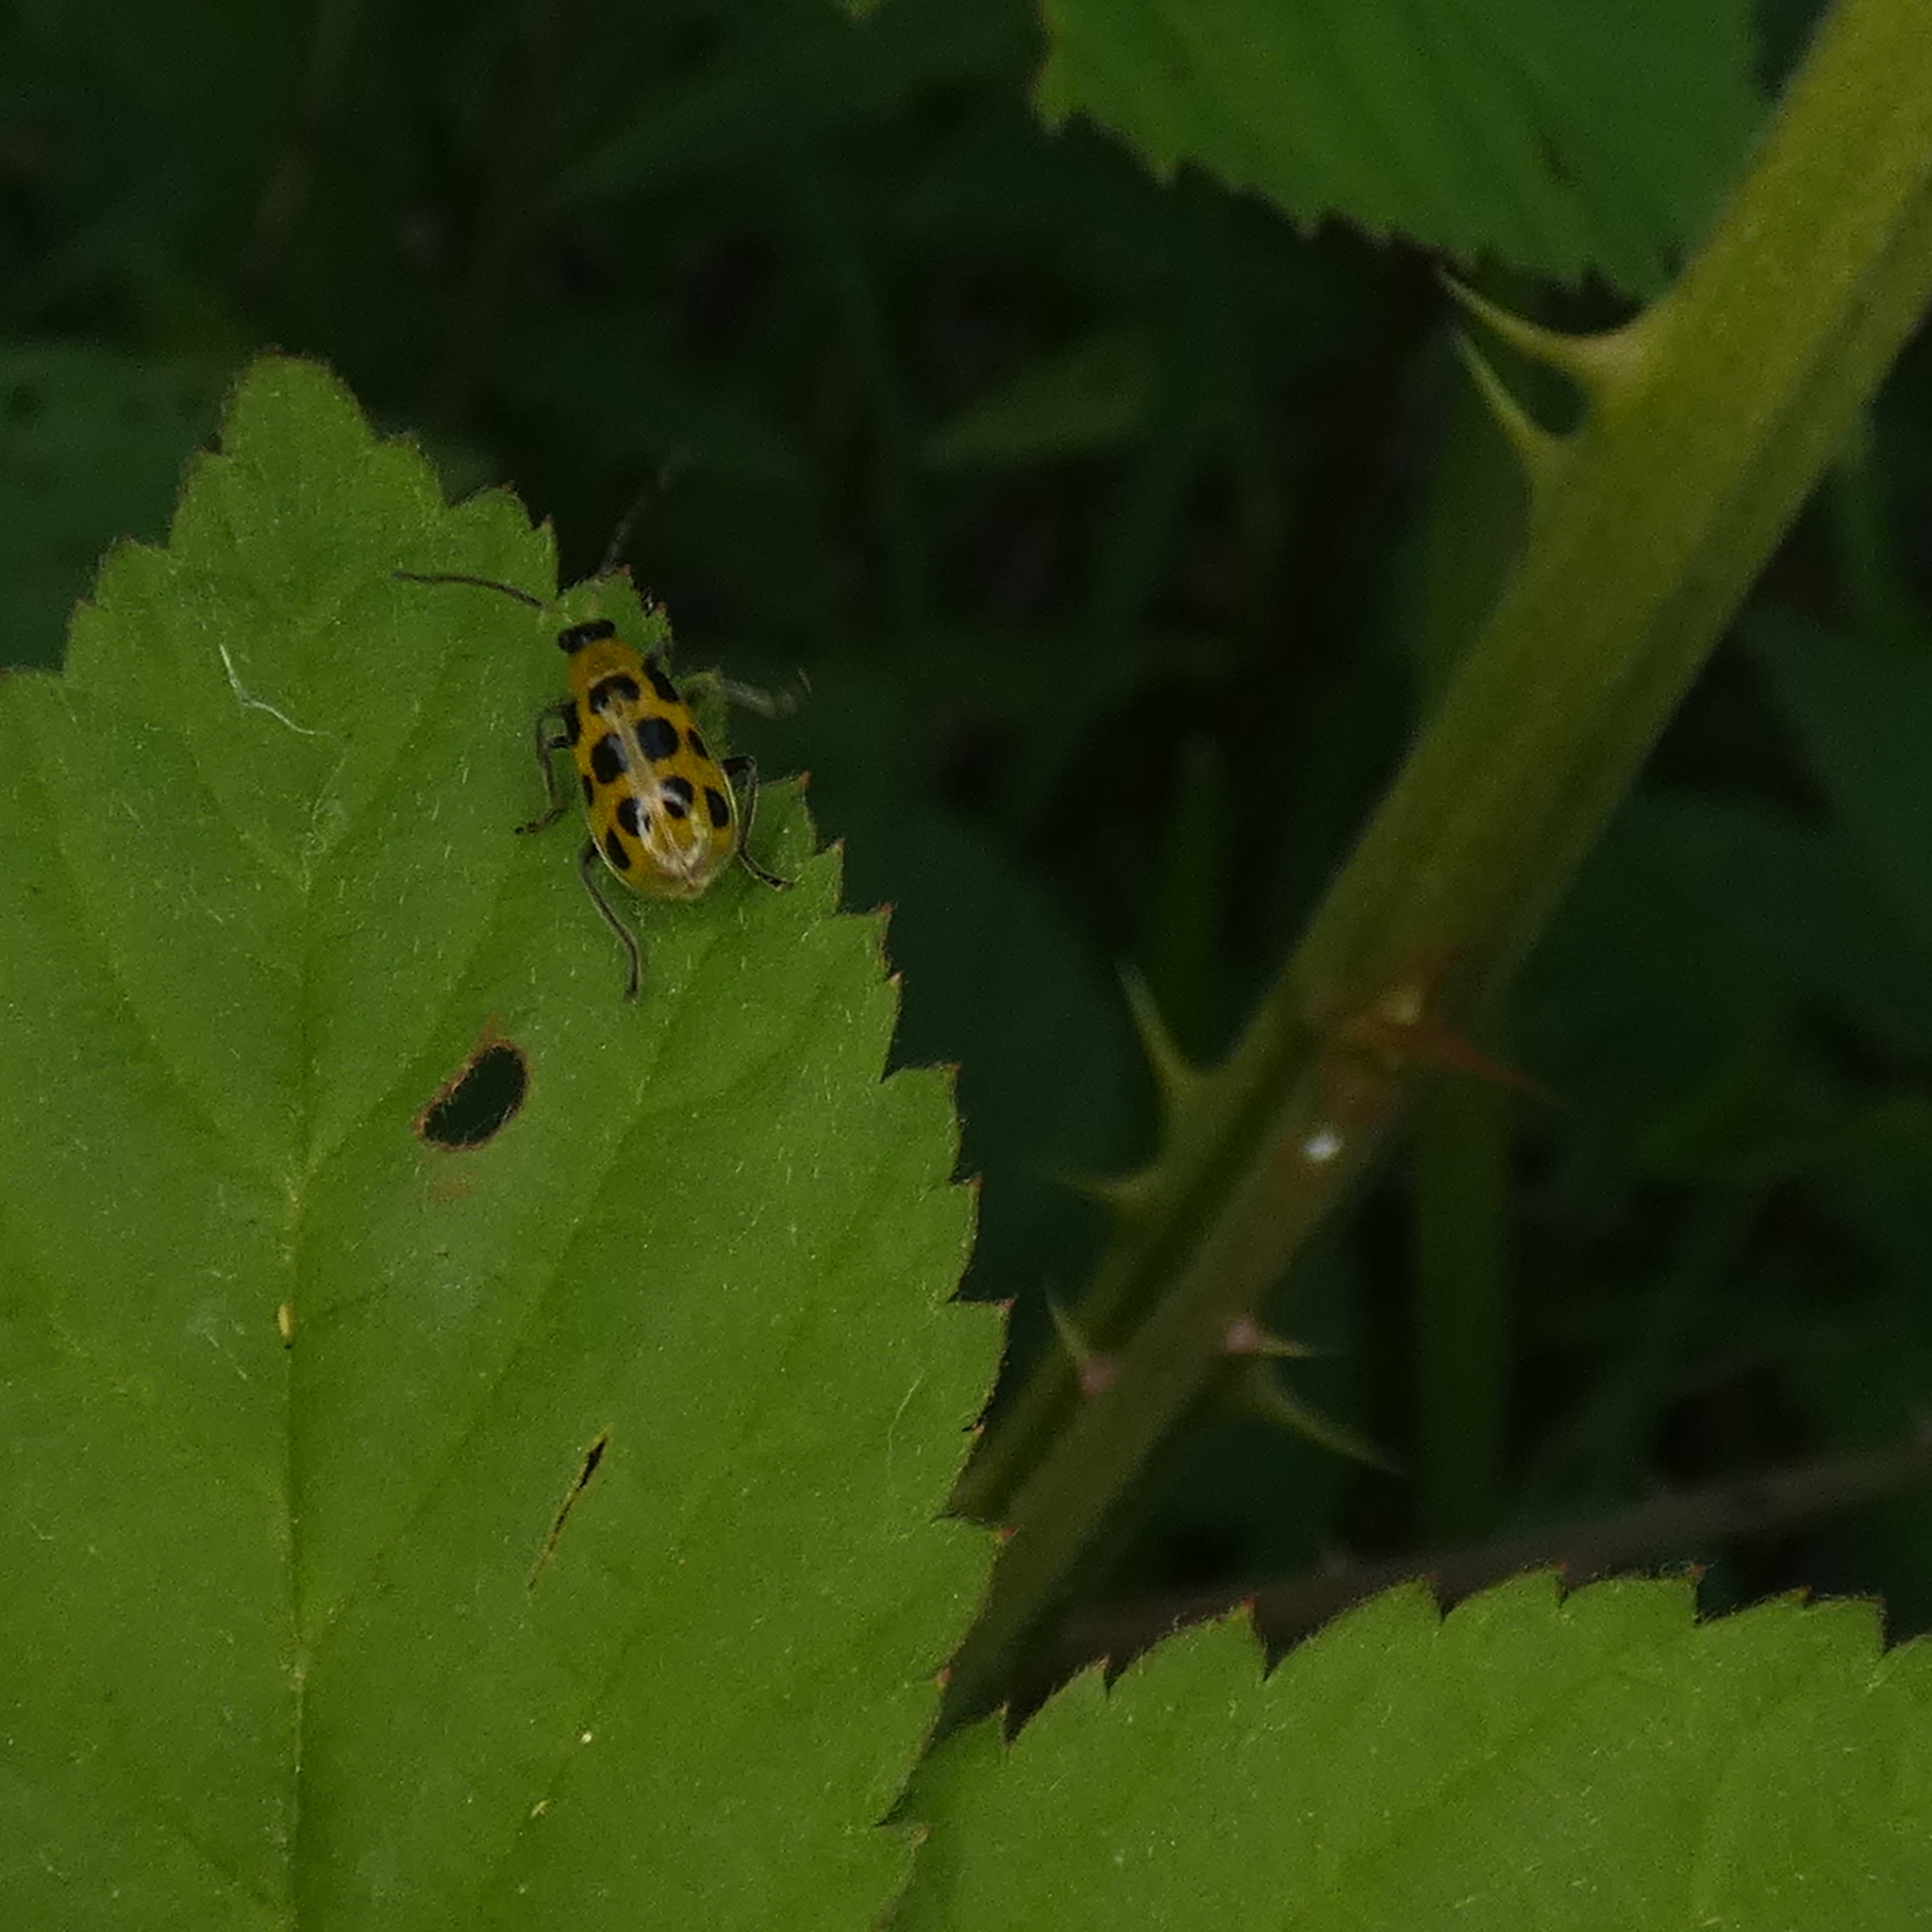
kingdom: Animalia
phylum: Arthropoda
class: Insecta
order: Coleoptera
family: Chrysomelidae
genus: Diabrotica
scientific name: Diabrotica undecimpunctata
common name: Spotted cucumber beetle
